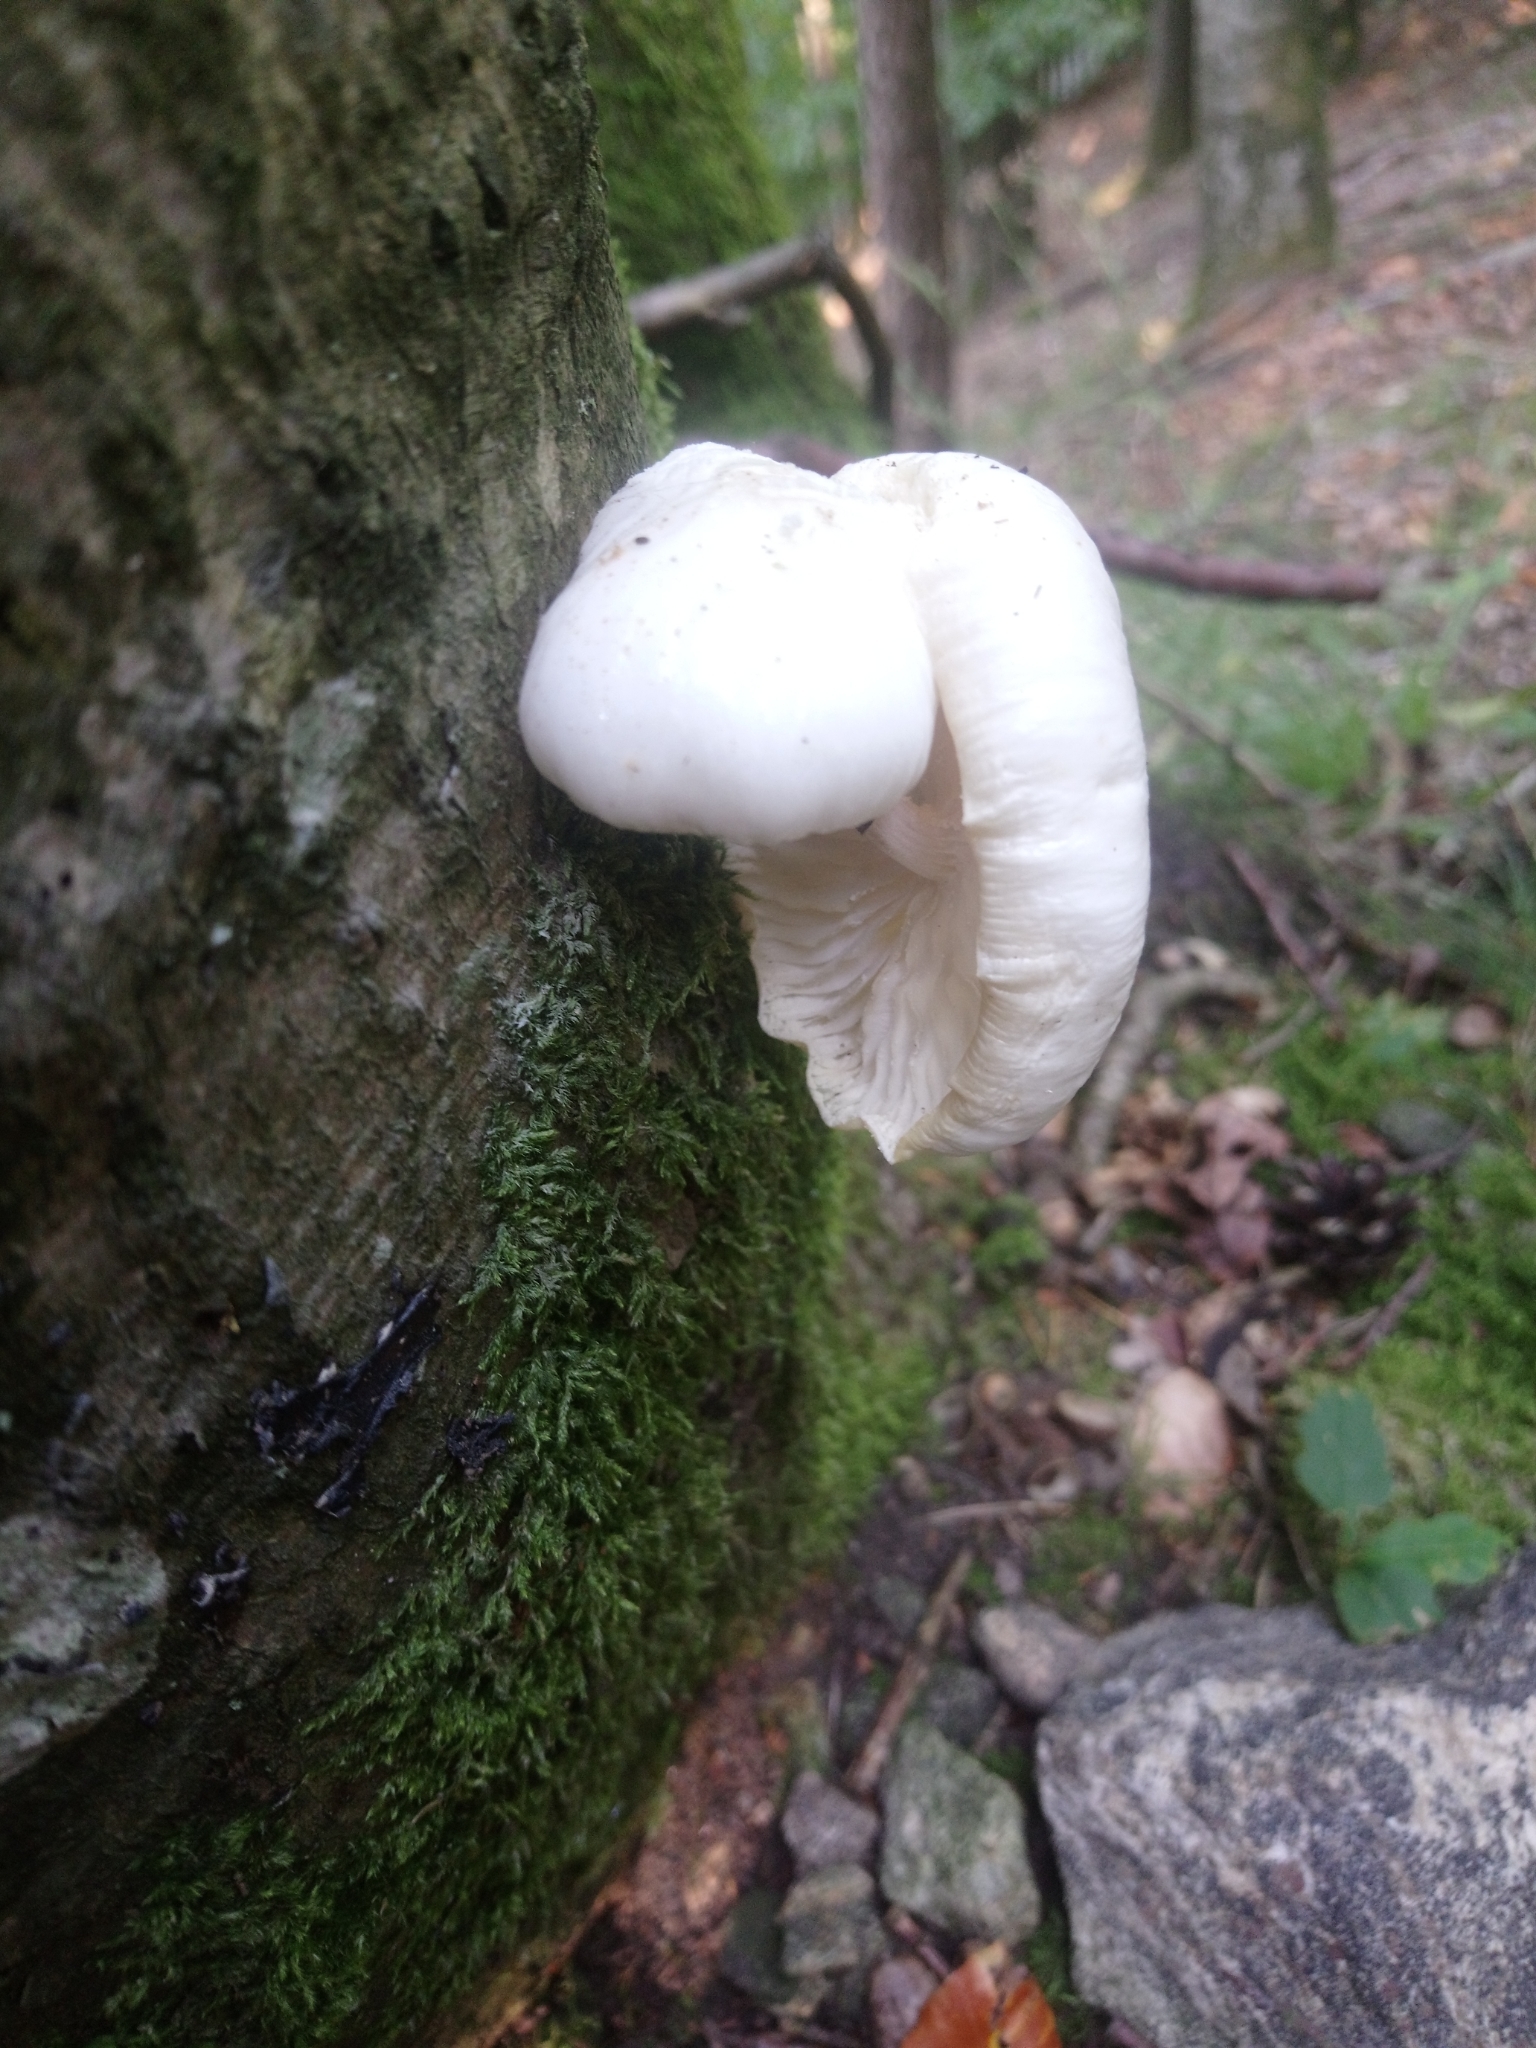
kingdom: Fungi
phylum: Basidiomycota
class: Agaricomycetes
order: Agaricales
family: Physalacriaceae
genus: Mucidula
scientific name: Mucidula mucida
